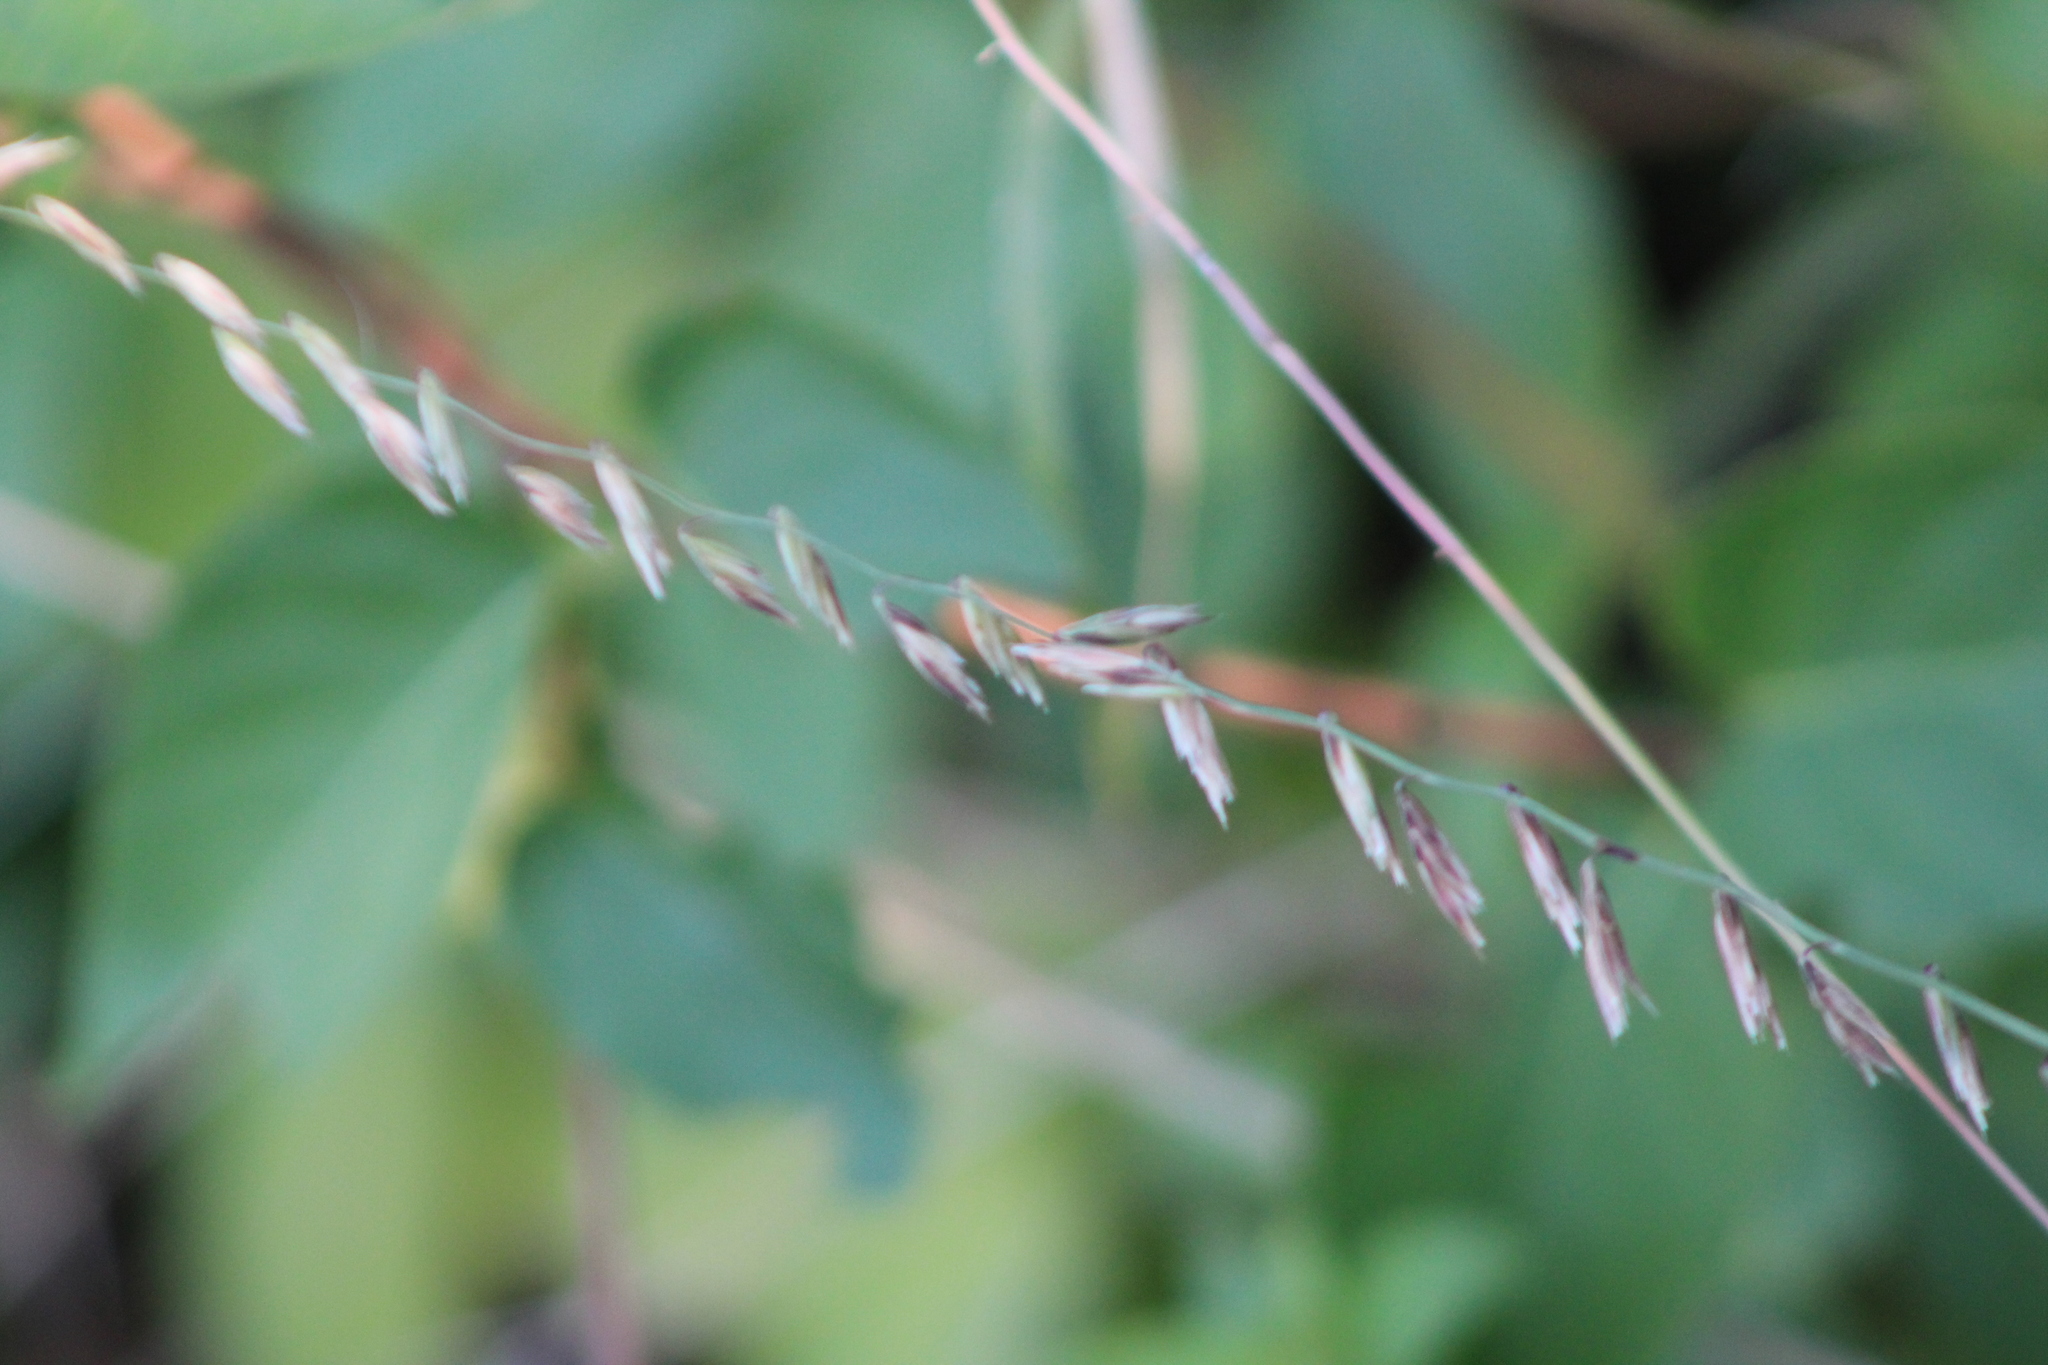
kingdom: Plantae
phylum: Tracheophyta
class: Liliopsida
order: Poales
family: Poaceae
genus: Bouteloua
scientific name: Bouteloua curtipendula
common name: Side-oats grama
